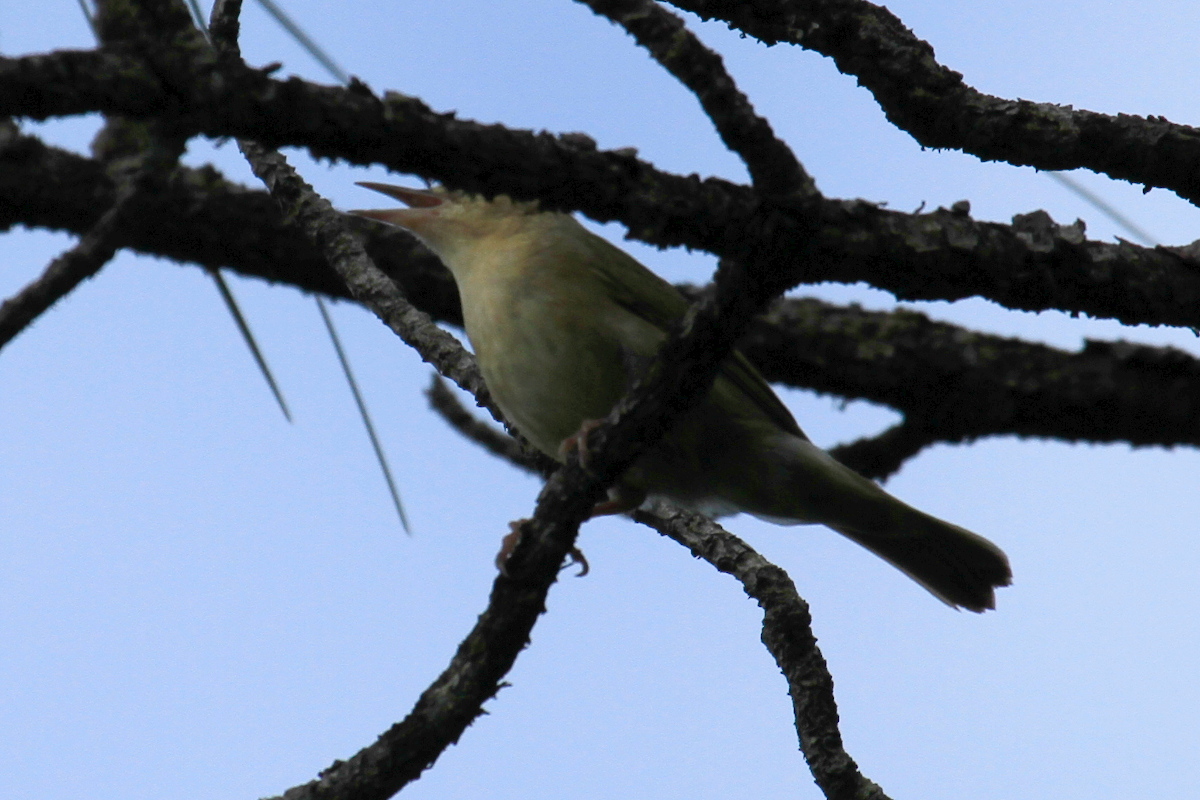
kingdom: Animalia
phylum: Chordata
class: Aves
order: Passeriformes
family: Parulidae
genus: Helmitheros
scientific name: Helmitheros vermivorum
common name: Worm-eating warbler
